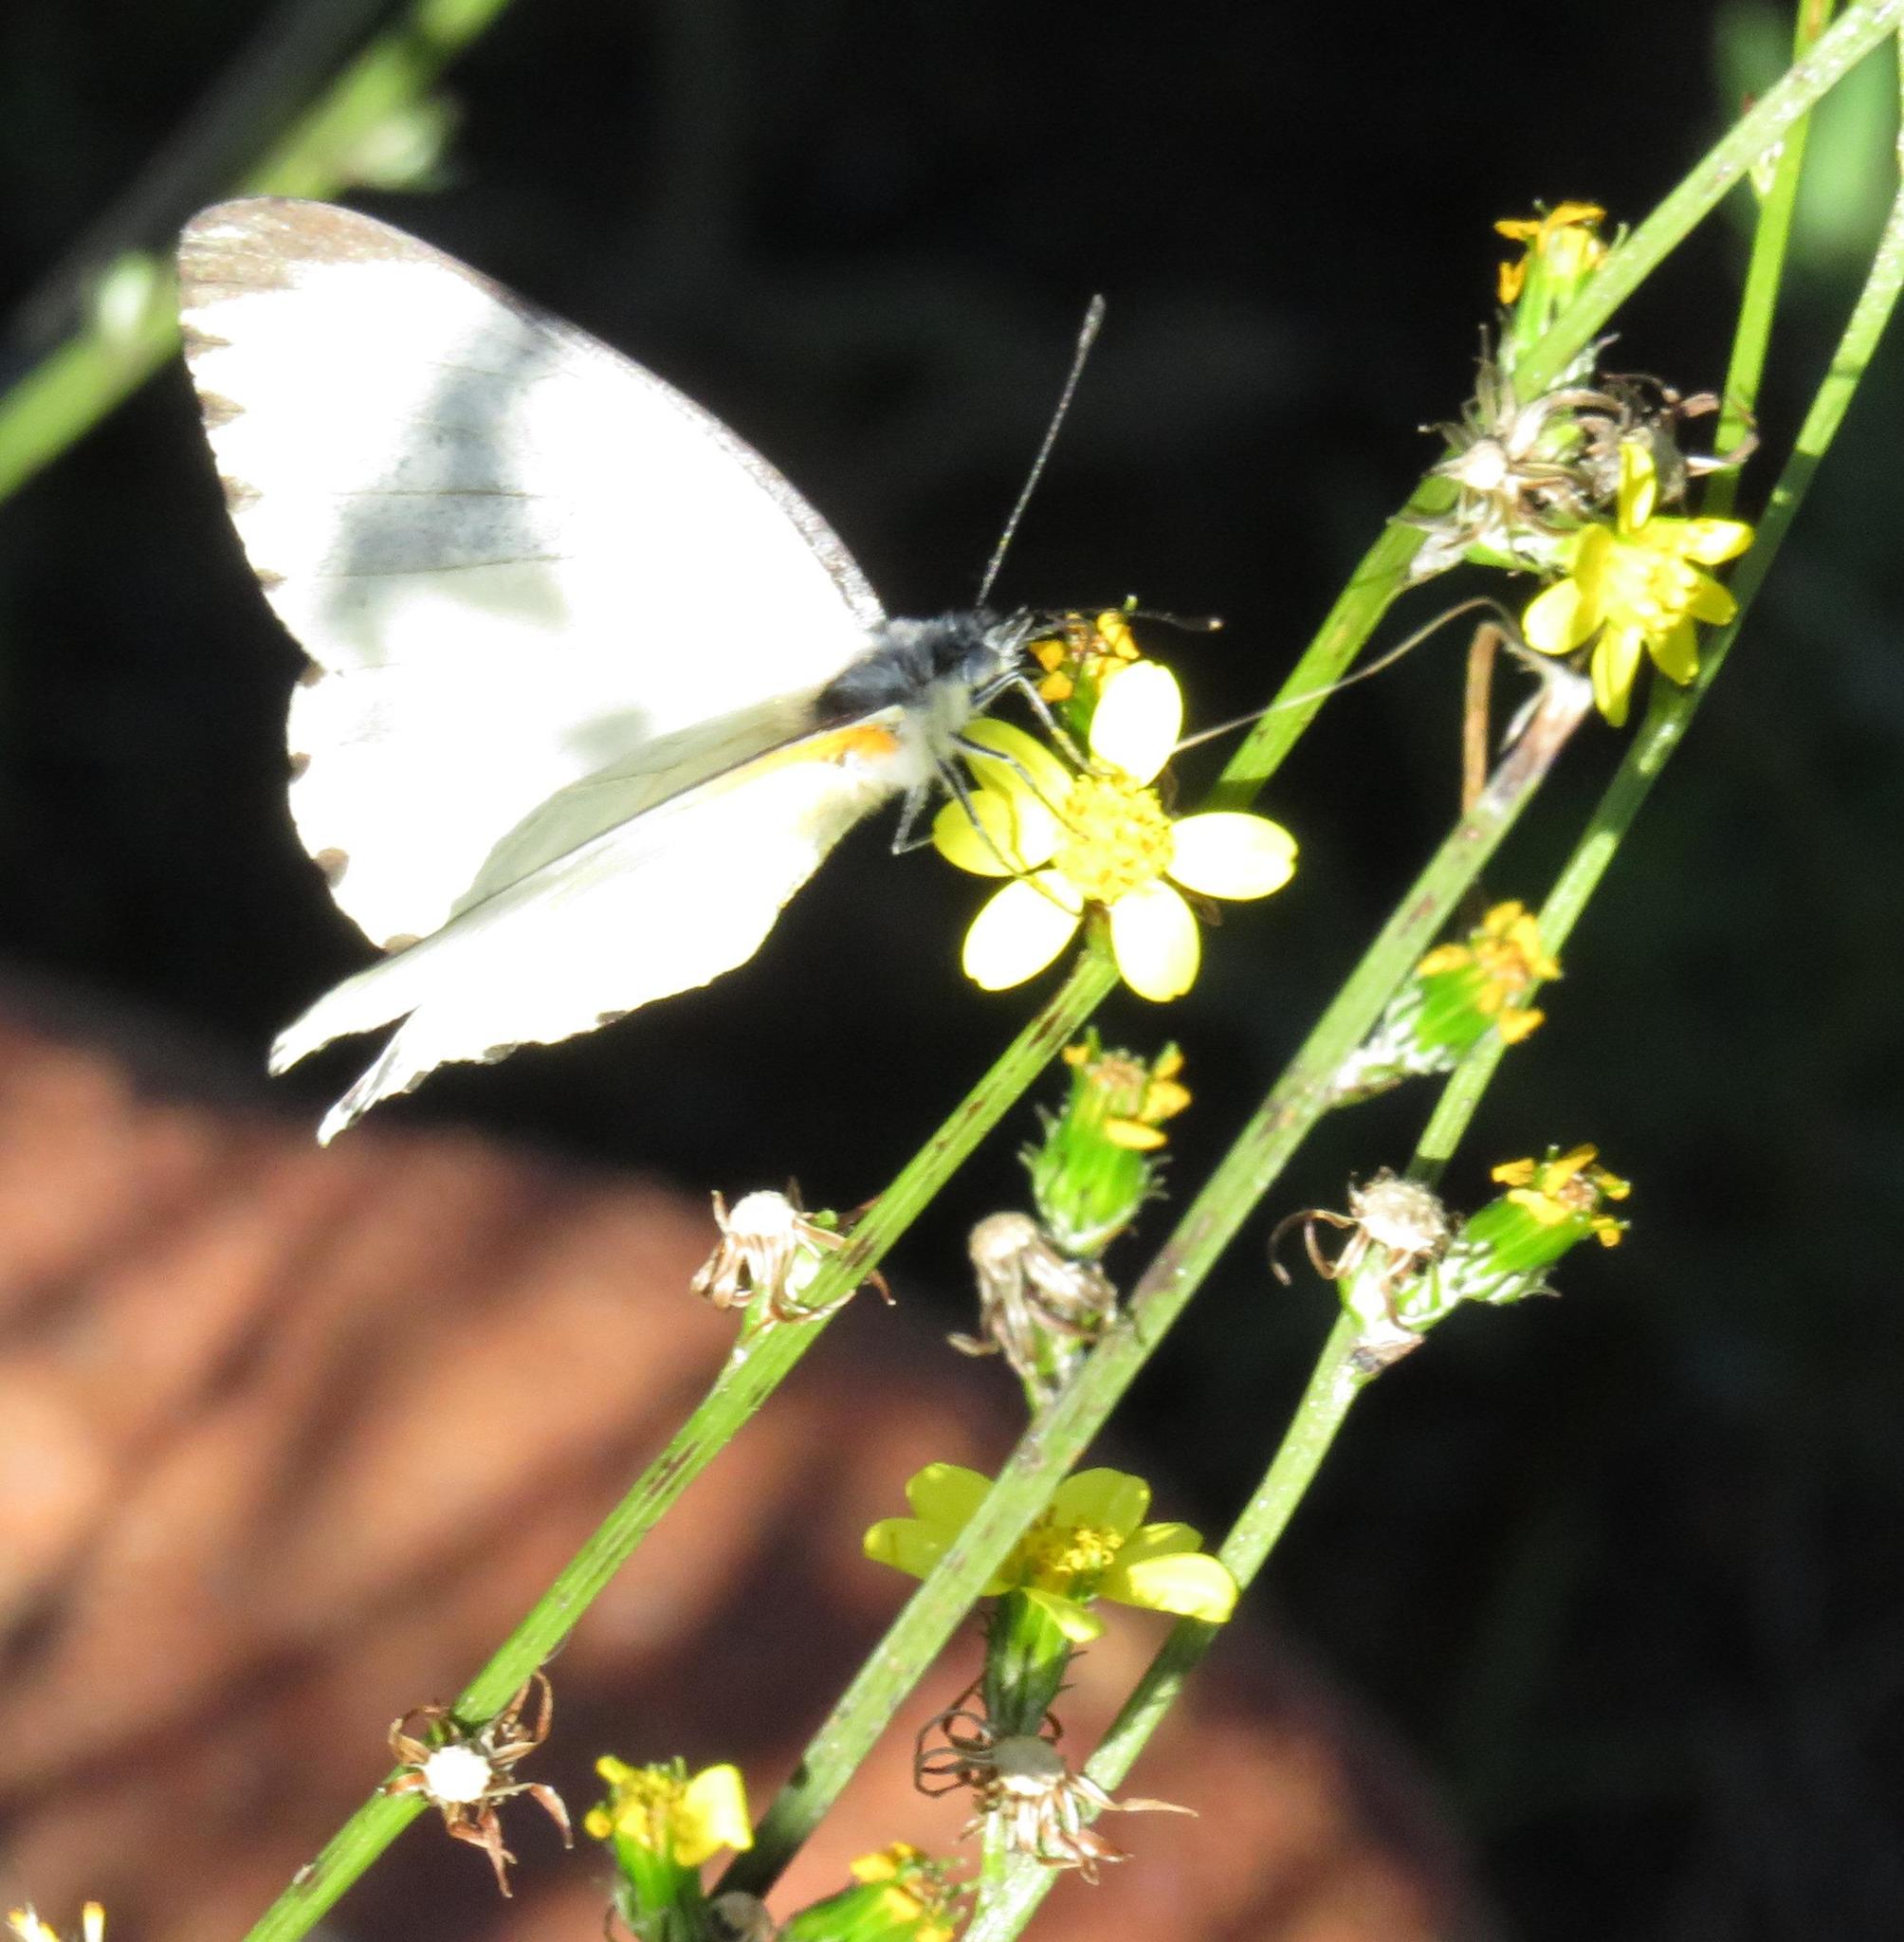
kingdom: Animalia
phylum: Arthropoda
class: Insecta
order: Lepidoptera
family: Pieridae
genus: Mylothris
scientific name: Mylothris agathina
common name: Eastern dotted border
